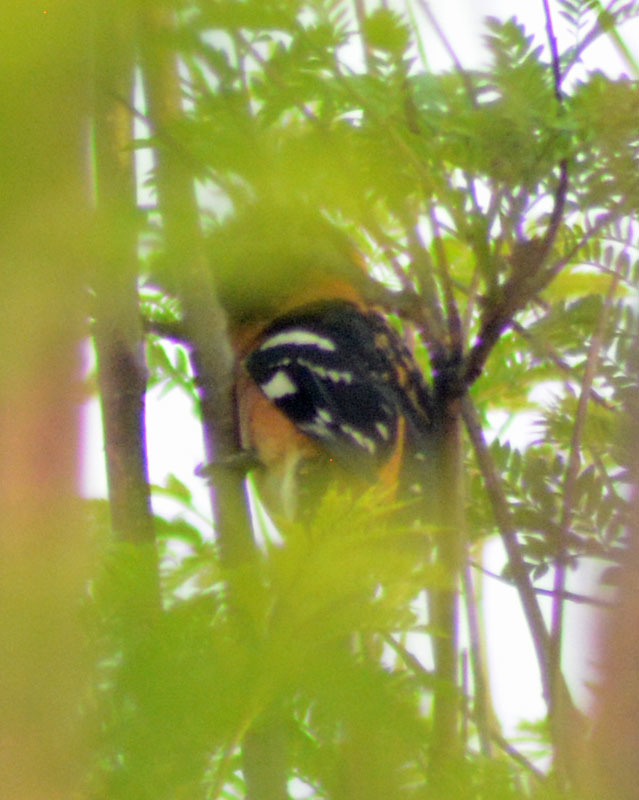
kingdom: Animalia
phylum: Chordata
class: Aves
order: Passeriformes
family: Cardinalidae
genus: Pheucticus
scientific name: Pheucticus melanocephalus
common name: Black-headed grosbeak
